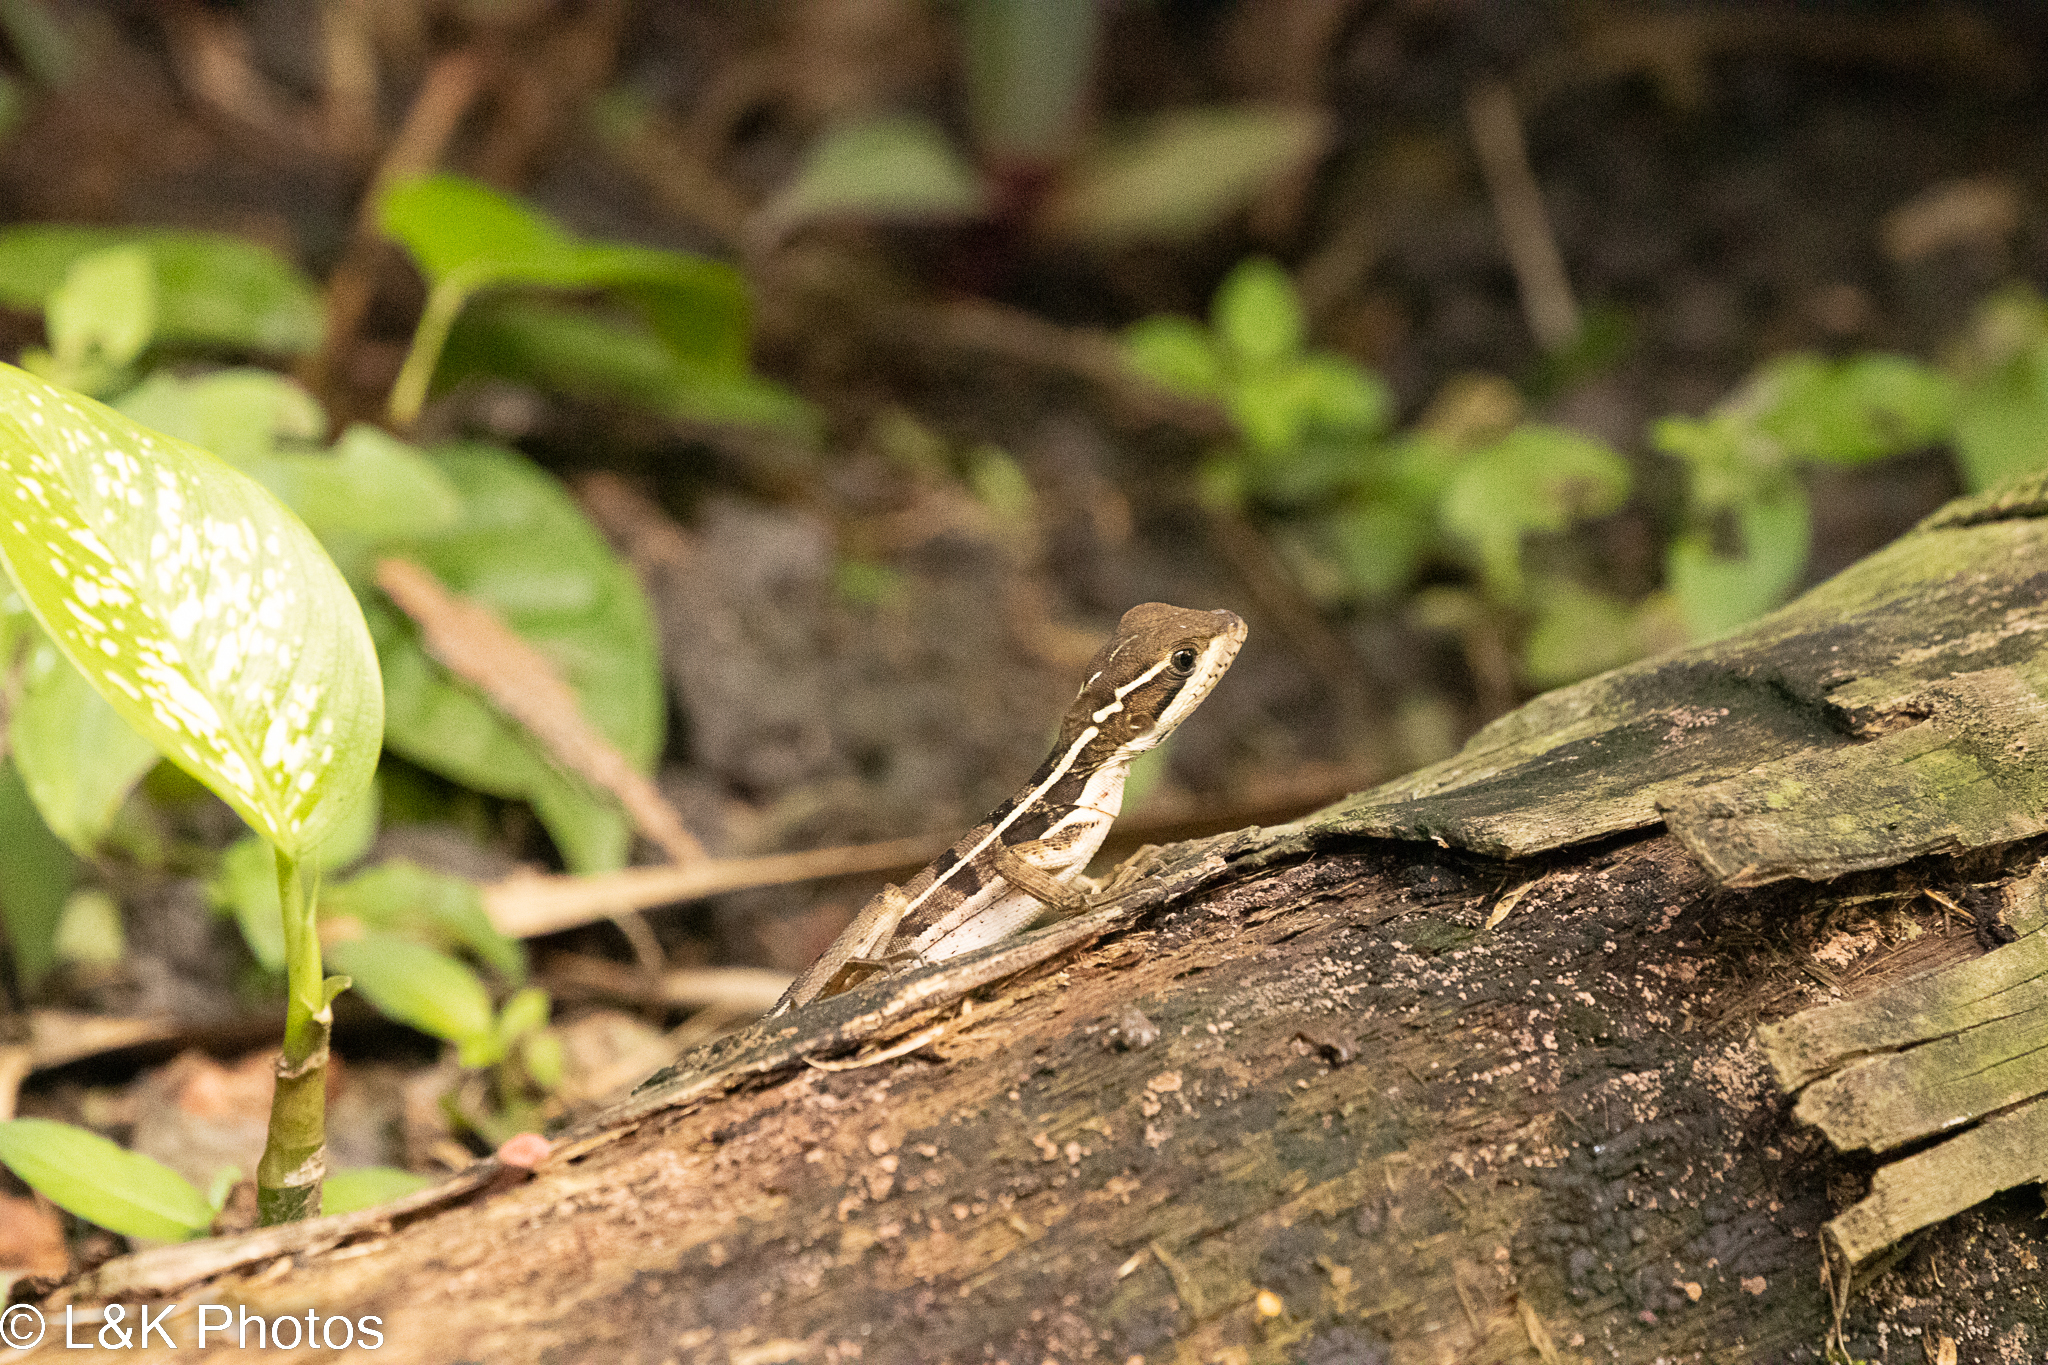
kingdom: Animalia
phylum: Chordata
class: Squamata
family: Corytophanidae
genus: Basiliscus
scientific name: Basiliscus vittatus
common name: Brown basilisk
